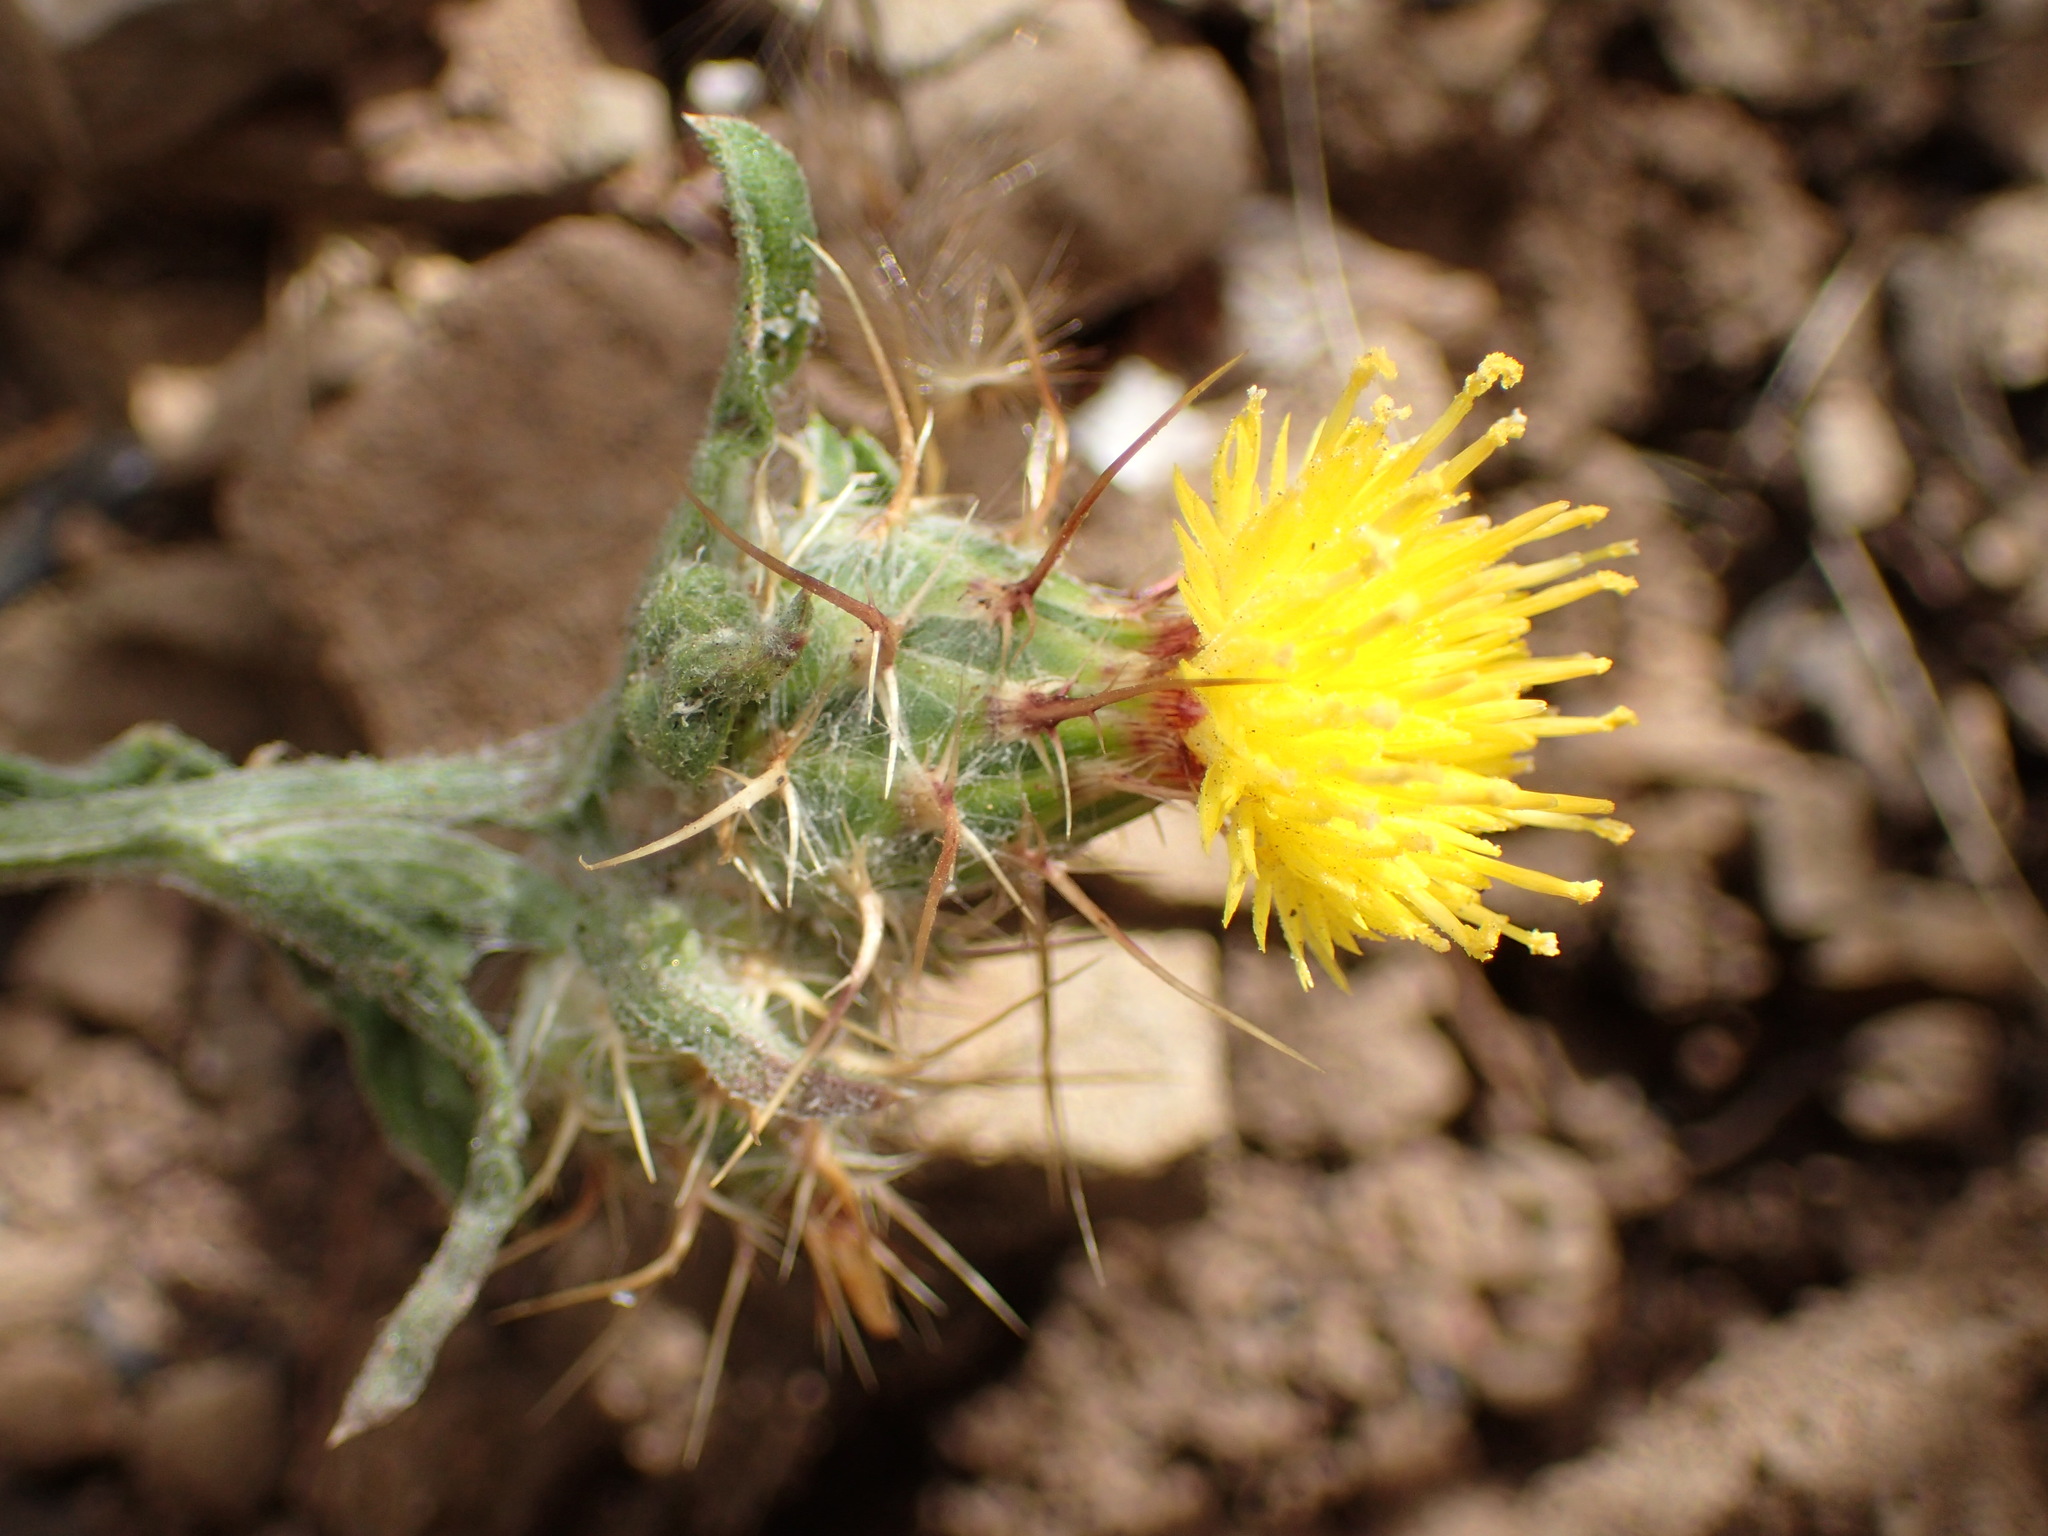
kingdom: Plantae
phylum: Tracheophyta
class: Magnoliopsida
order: Asterales
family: Asteraceae
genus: Centaurea
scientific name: Centaurea melitensis
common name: Maltese star-thistle
